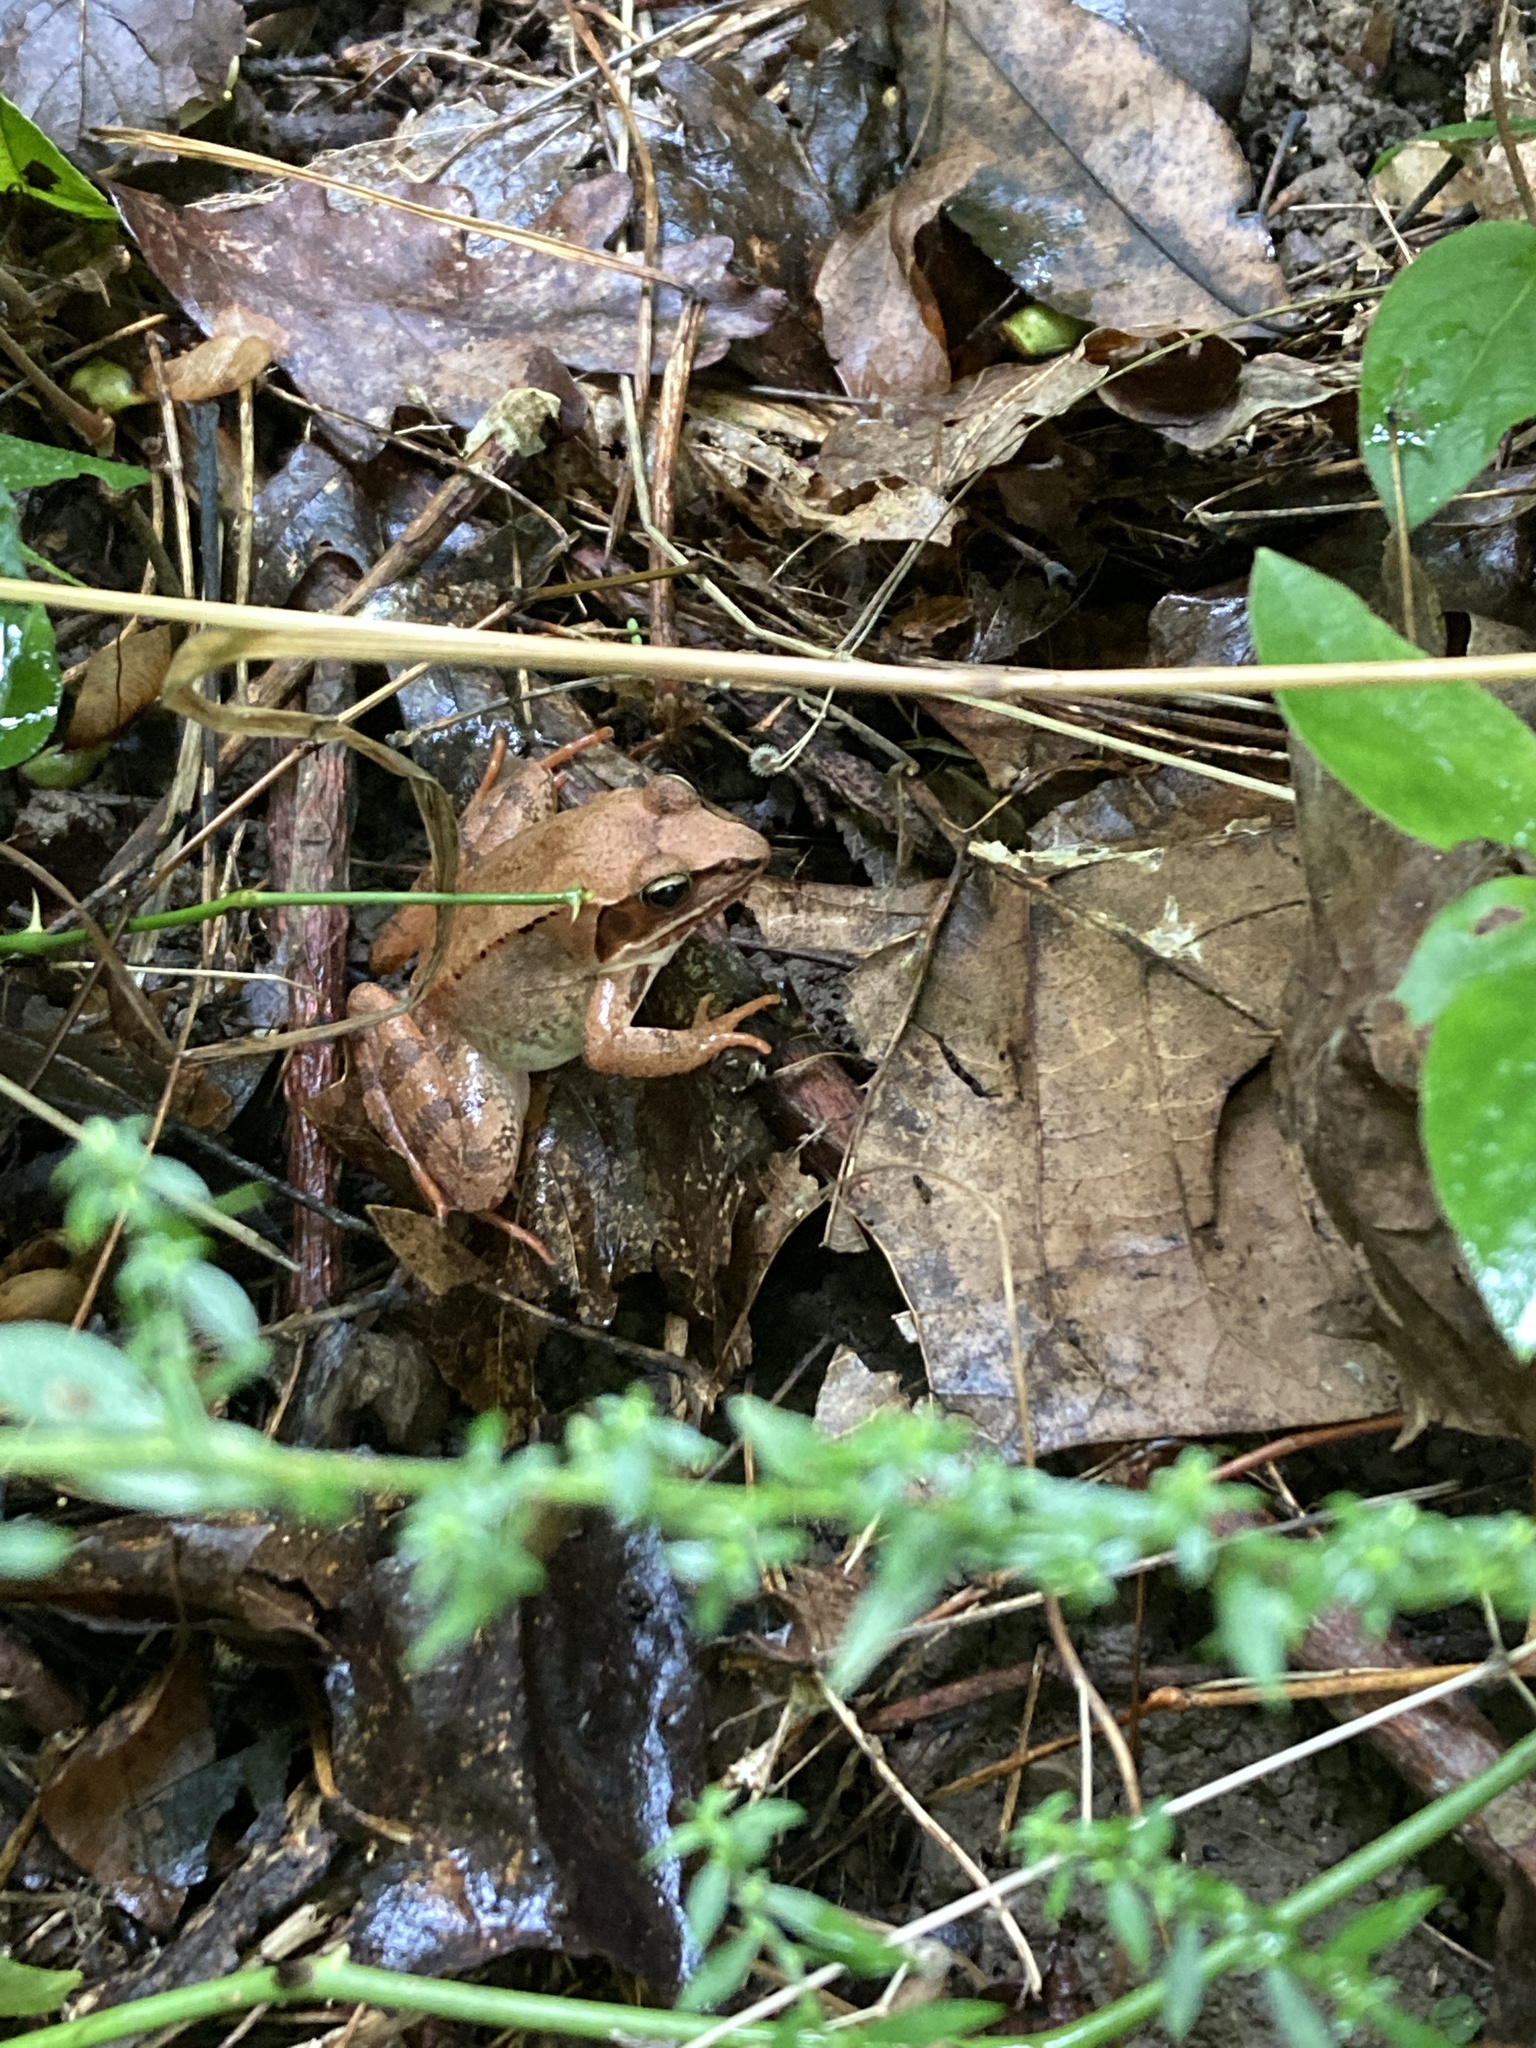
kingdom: Animalia
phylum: Chordata
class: Amphibia
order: Anura
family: Ranidae
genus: Lithobates
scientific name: Lithobates sylvaticus
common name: Wood frog
